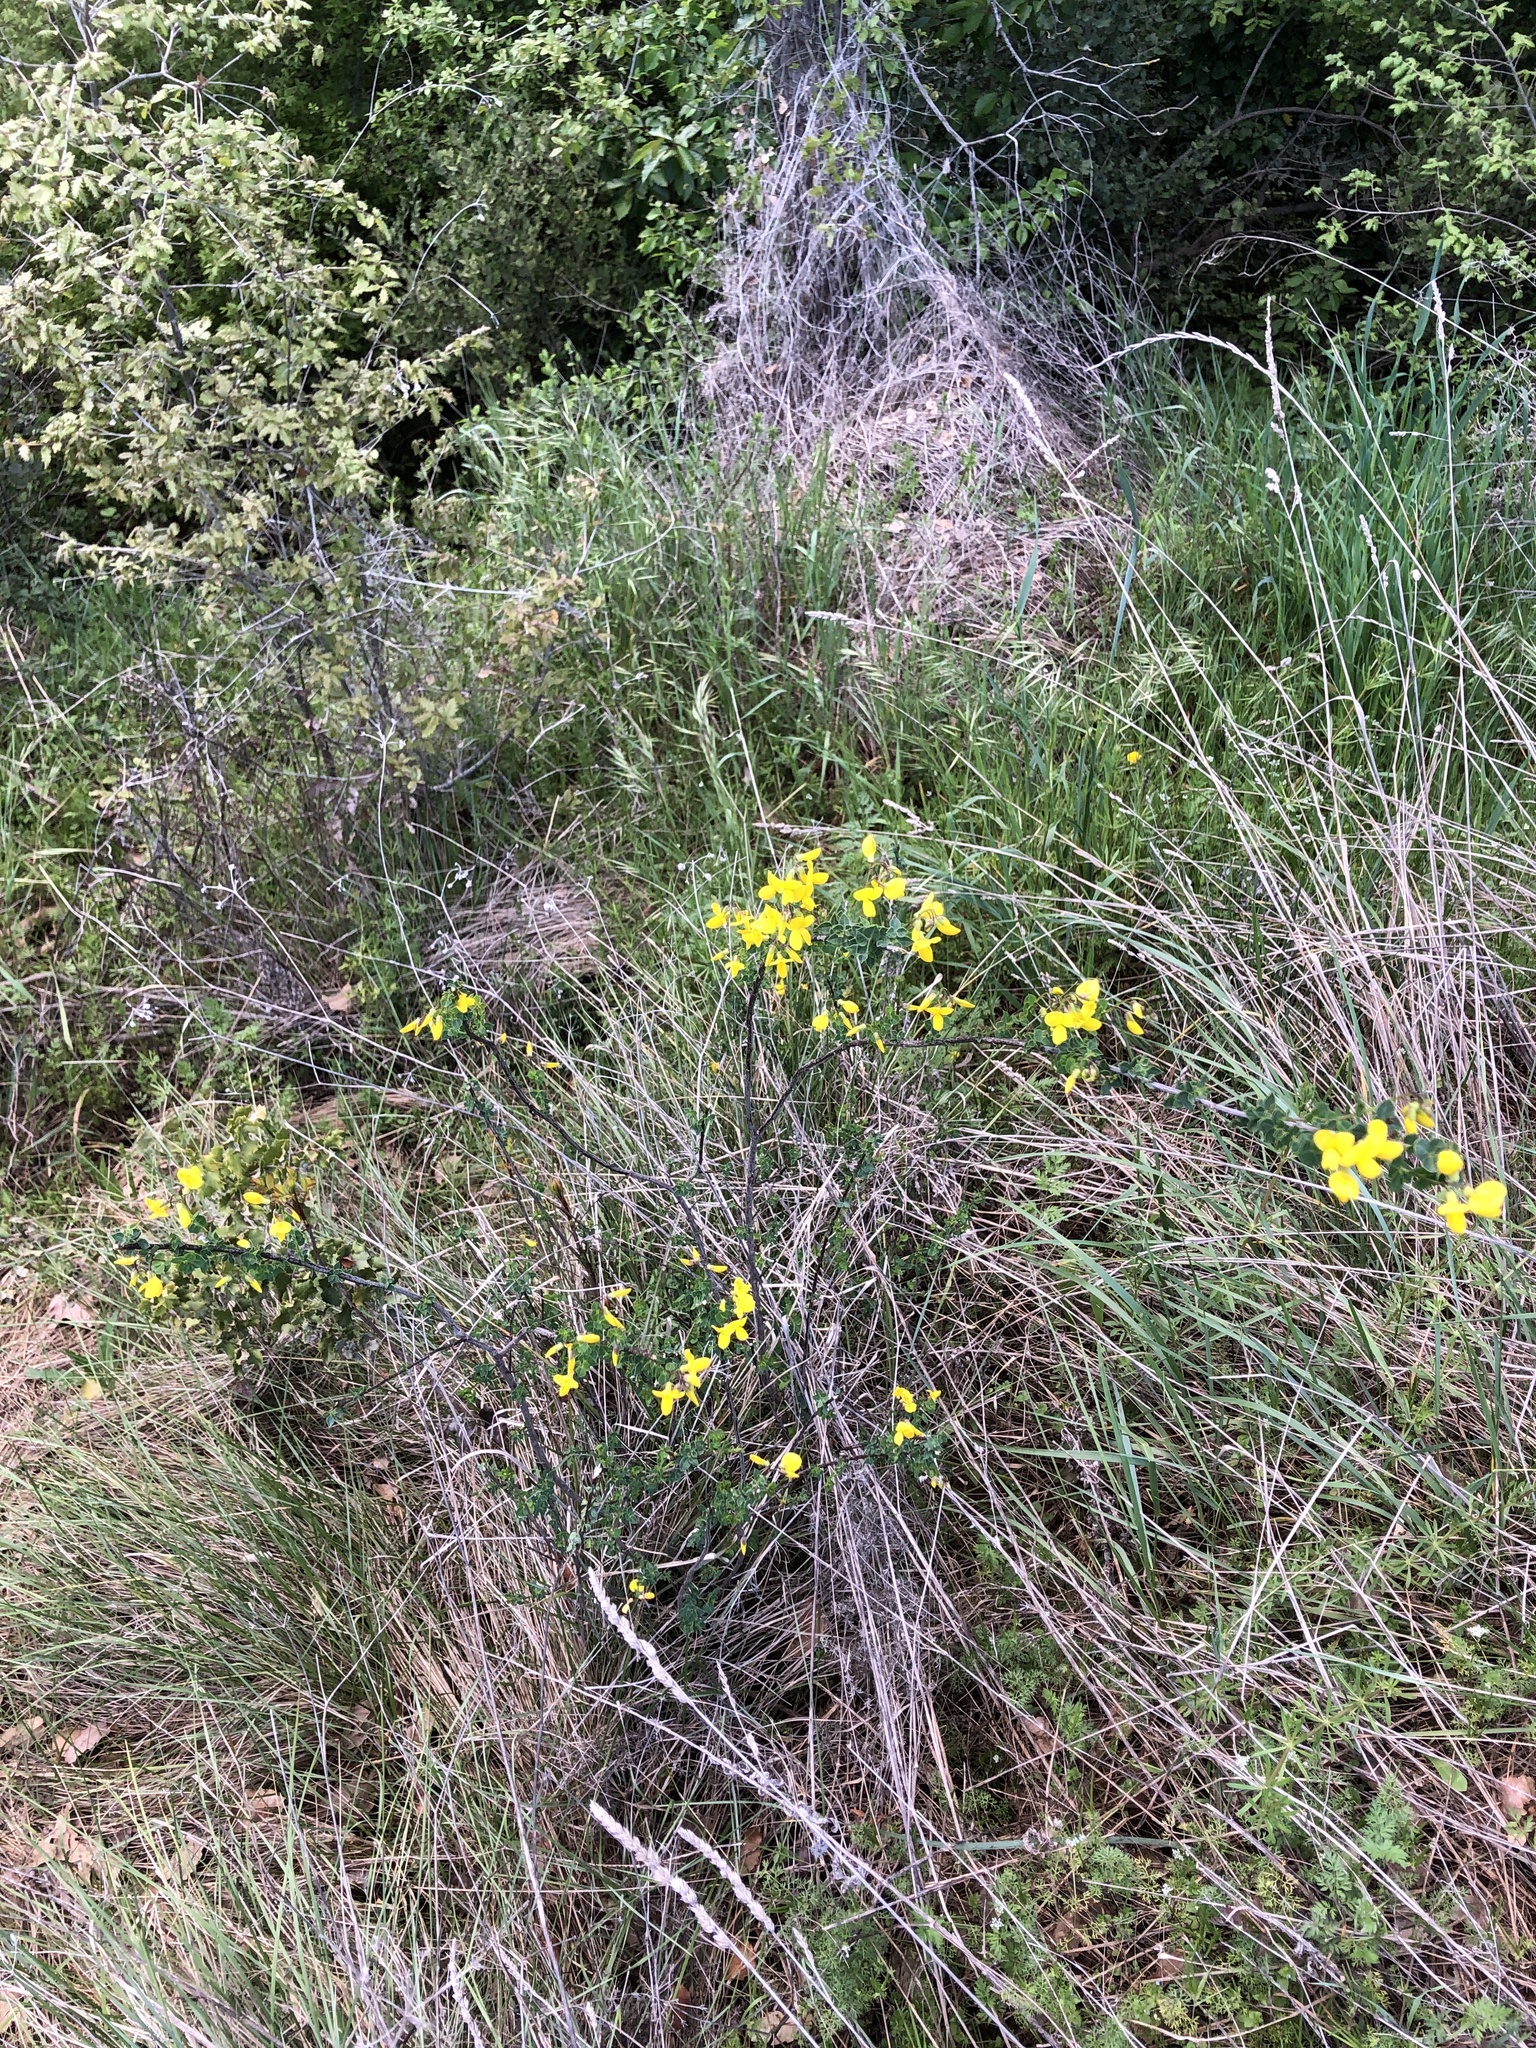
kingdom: Plantae
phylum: Tracheophyta
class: Magnoliopsida
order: Fabales
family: Fabaceae
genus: Cytisophyllum
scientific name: Cytisophyllum sessilifolium
